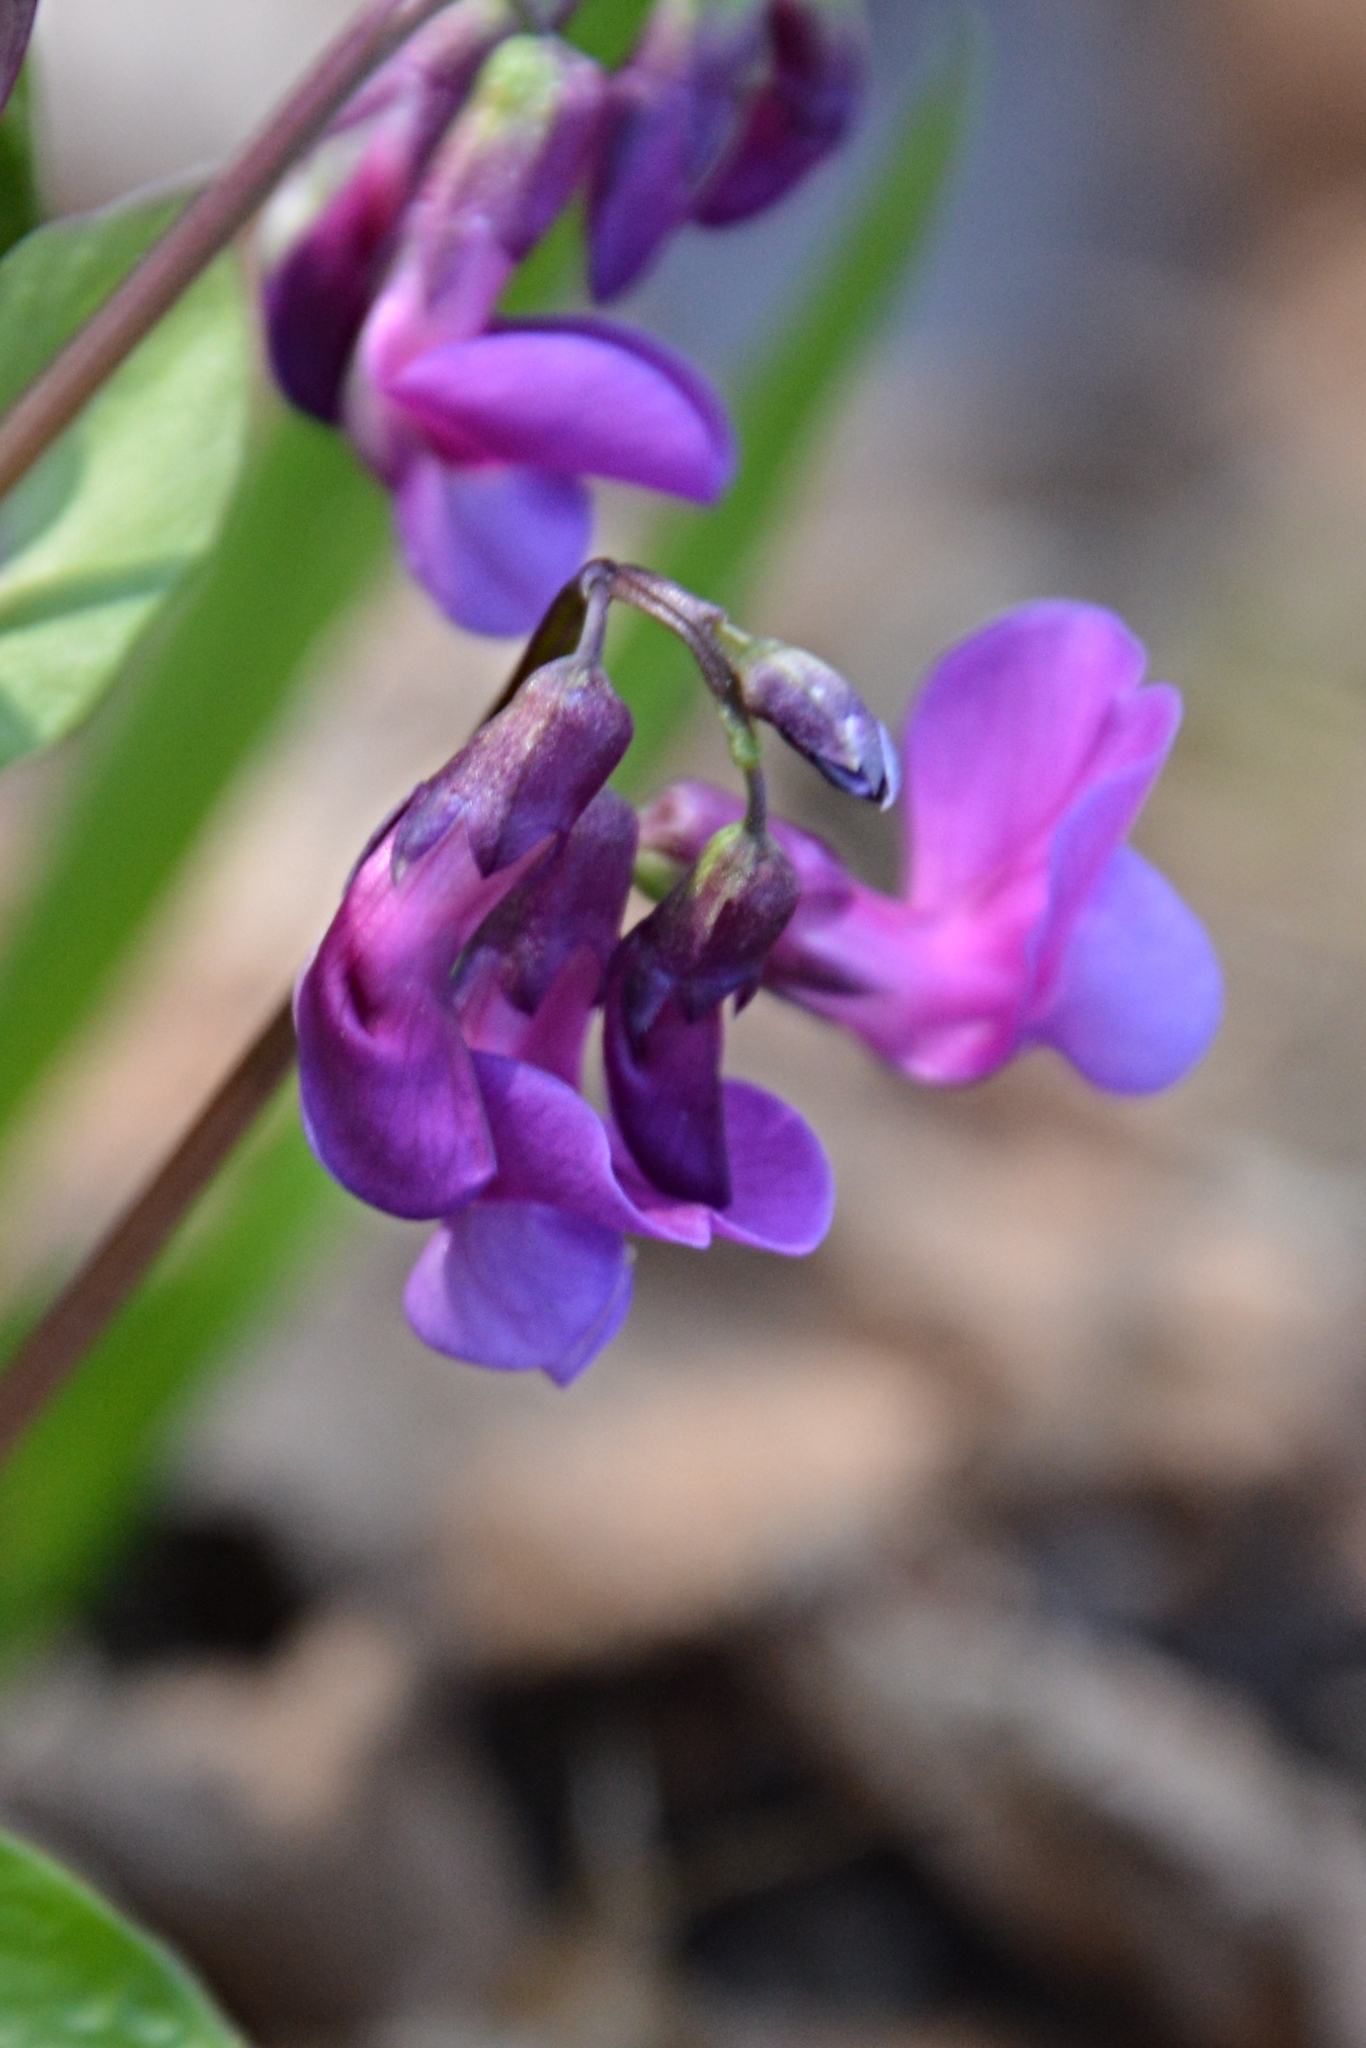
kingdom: Plantae
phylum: Tracheophyta
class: Magnoliopsida
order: Fabales
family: Fabaceae
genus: Lathyrus
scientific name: Lathyrus vernus
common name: Spring pea
